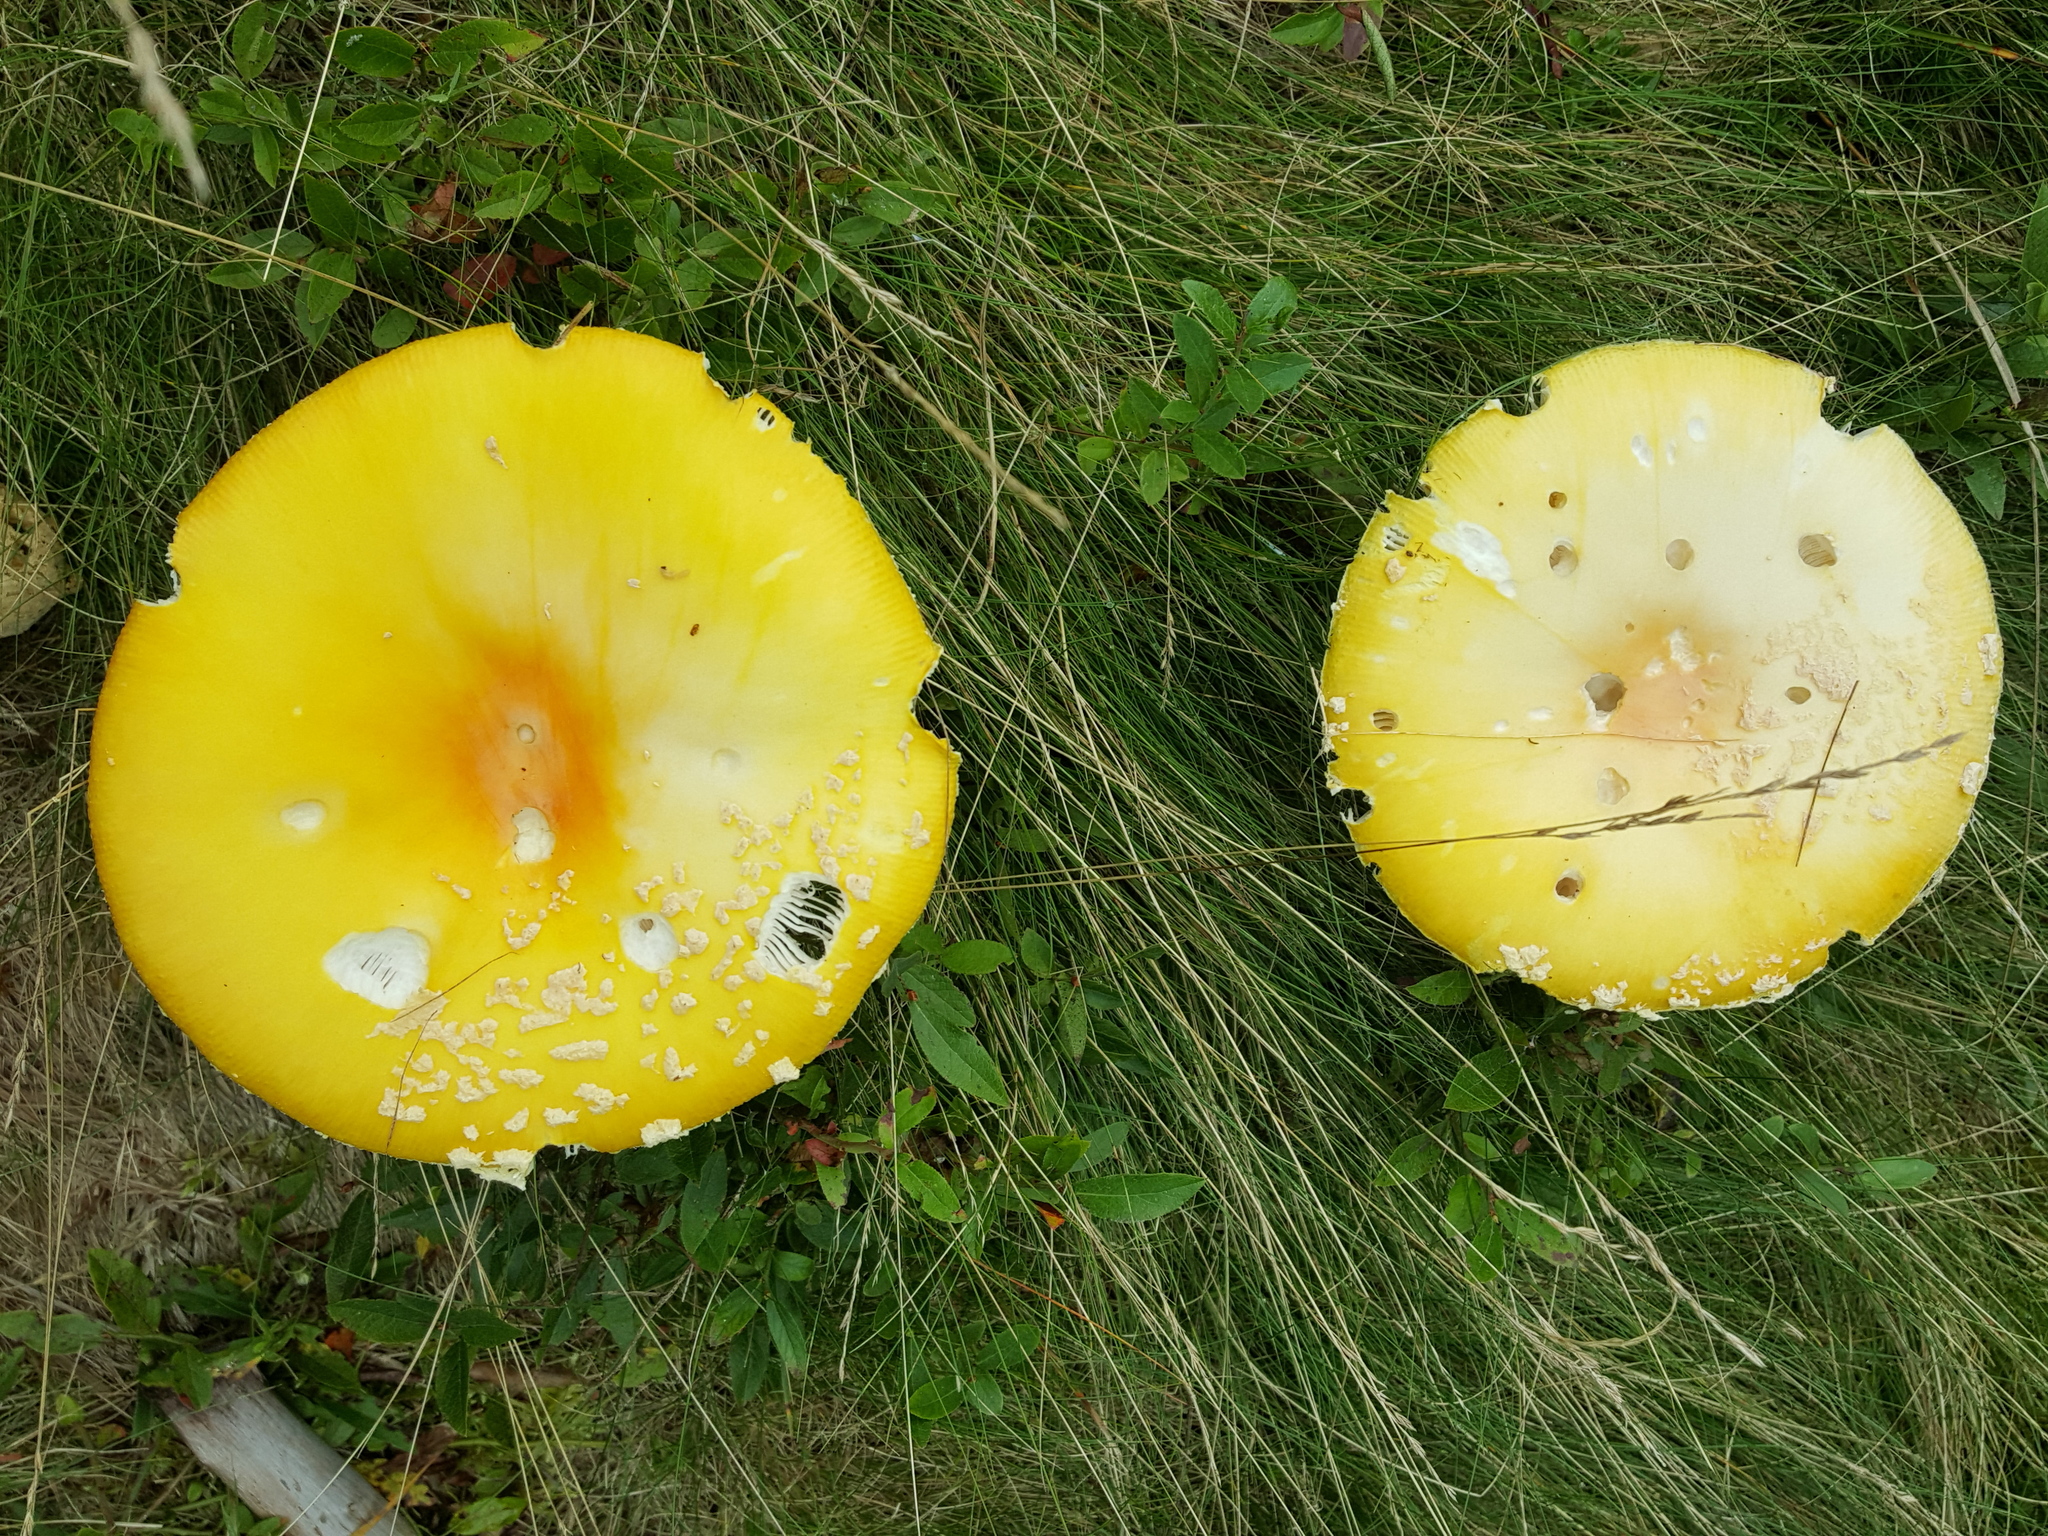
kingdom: Fungi
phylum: Basidiomycota
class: Agaricomycetes
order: Agaricales
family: Amanitaceae
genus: Amanita
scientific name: Amanita muscaria
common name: Fly agaric
